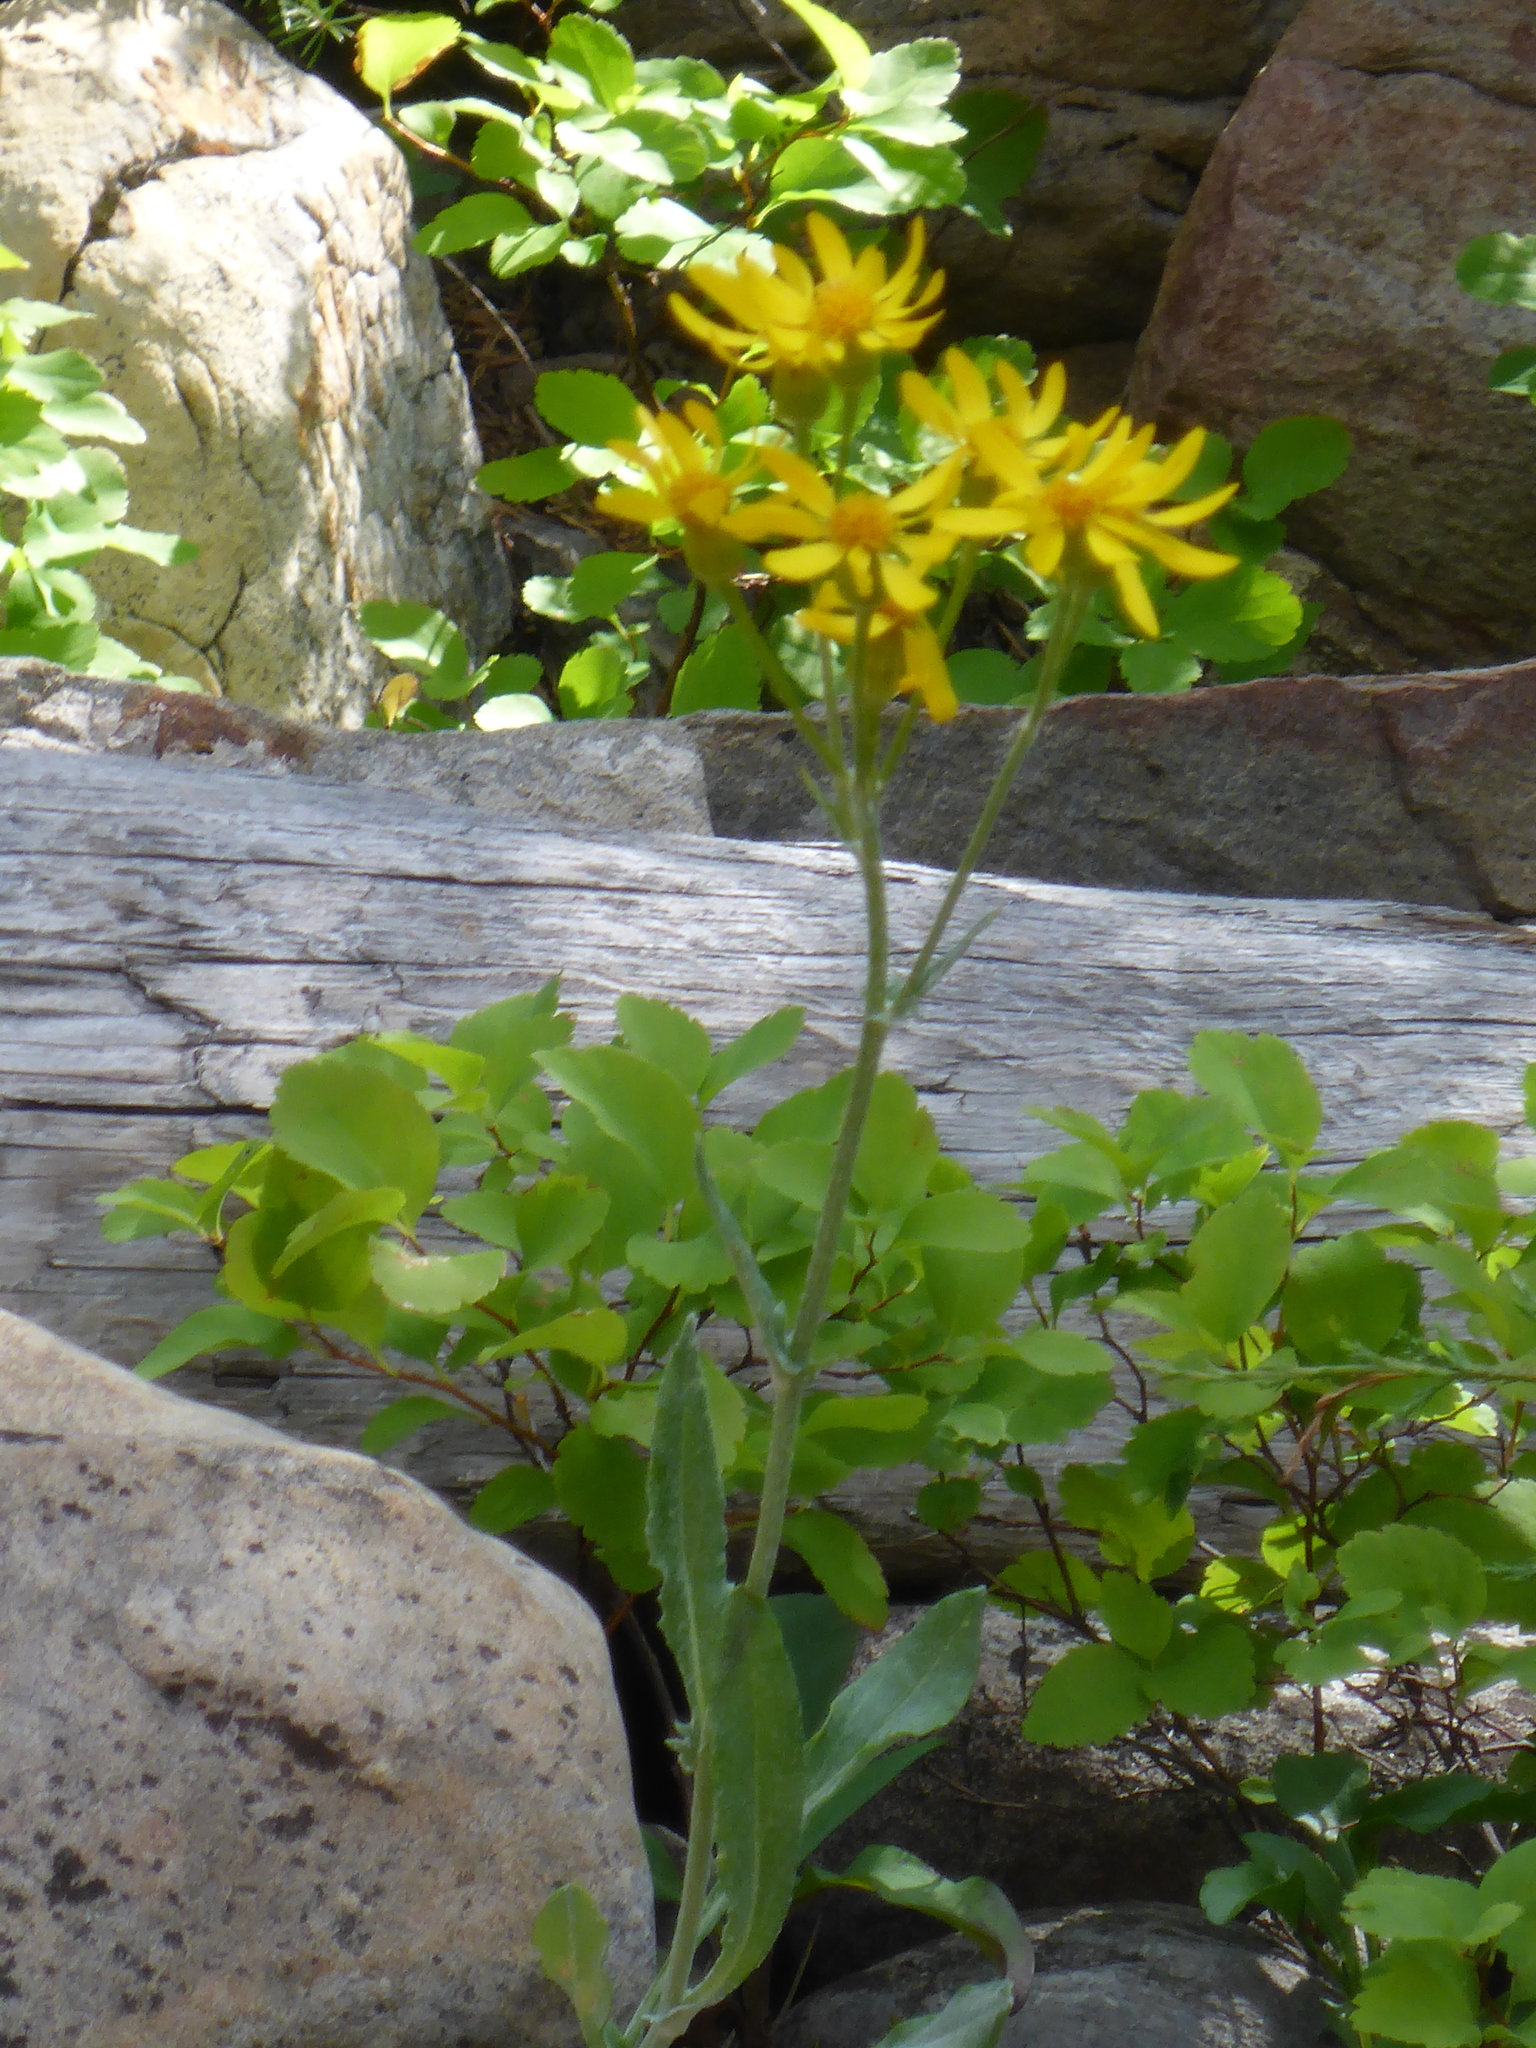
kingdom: Plantae
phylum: Tracheophyta
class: Magnoliopsida
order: Asterales
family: Asteraceae
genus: Senecio
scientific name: Senecio lugens
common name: Black-tip groundsel
